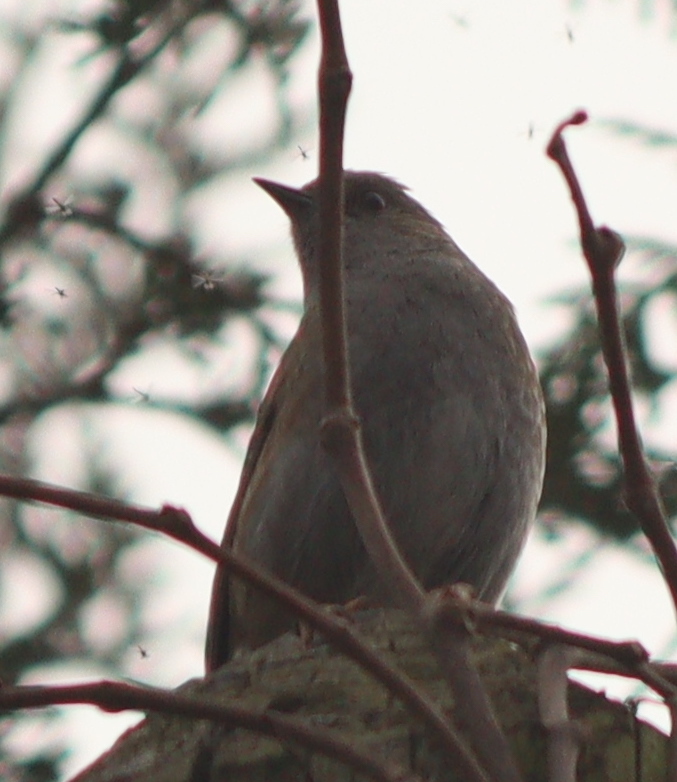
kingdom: Animalia
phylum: Chordata
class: Aves
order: Passeriformes
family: Prunellidae
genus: Prunella
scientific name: Prunella modularis
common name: Dunnock
